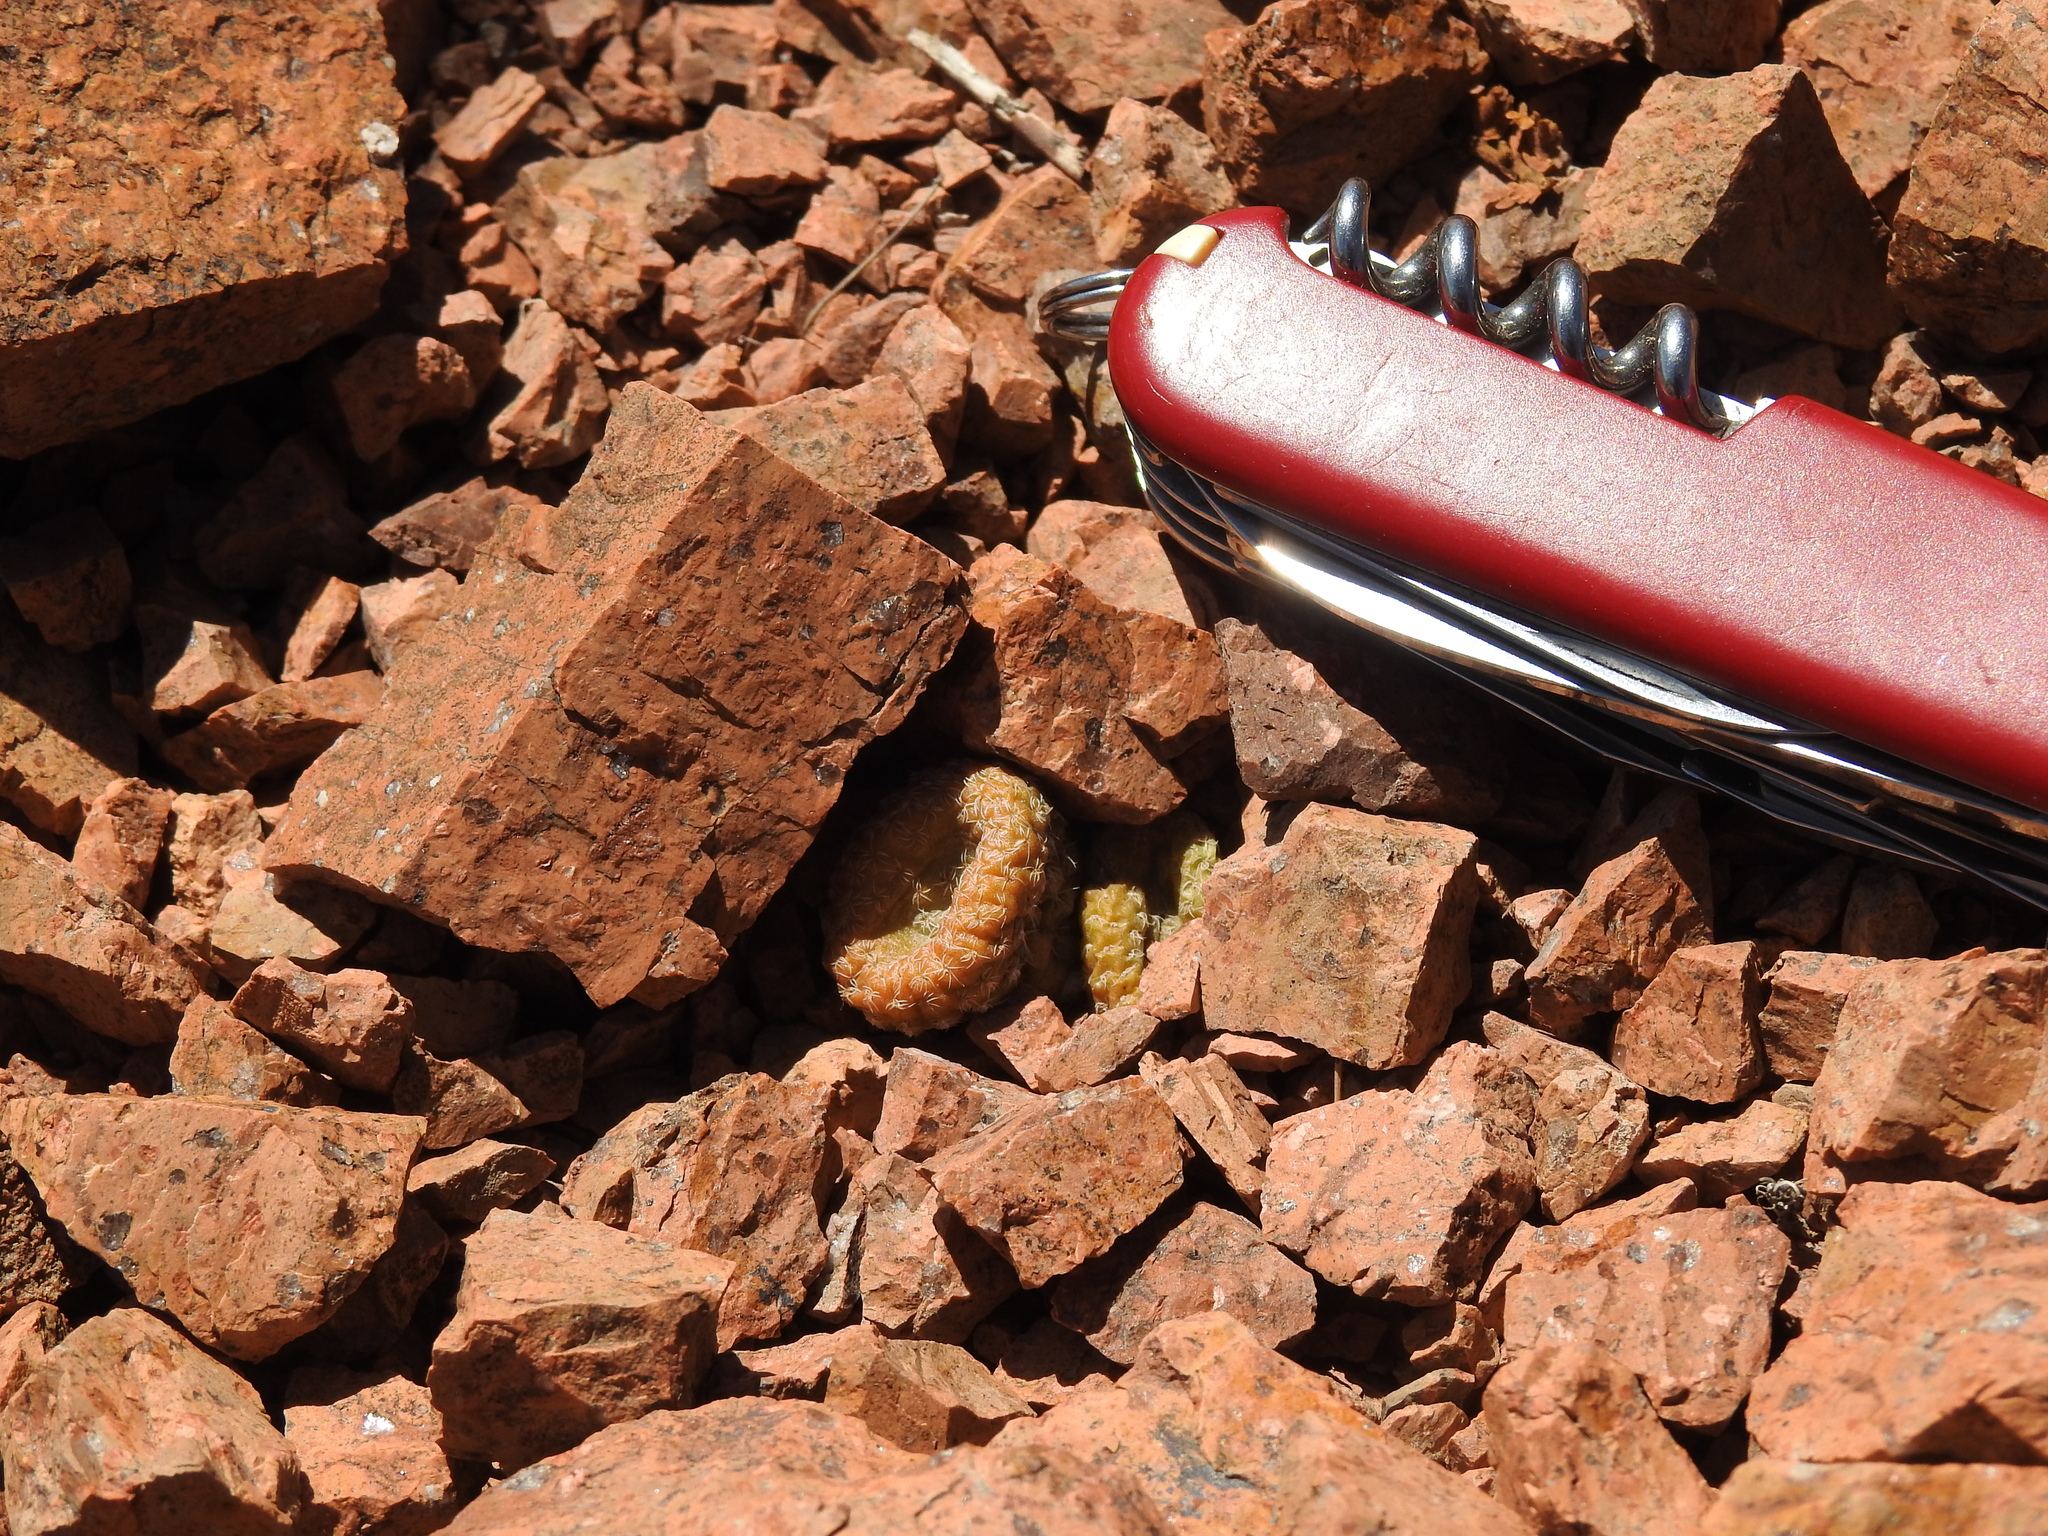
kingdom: Plantae
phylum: Tracheophyta
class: Magnoliopsida
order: Caryophyllales
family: Cactaceae
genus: Puna
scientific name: Puna clavarioides
